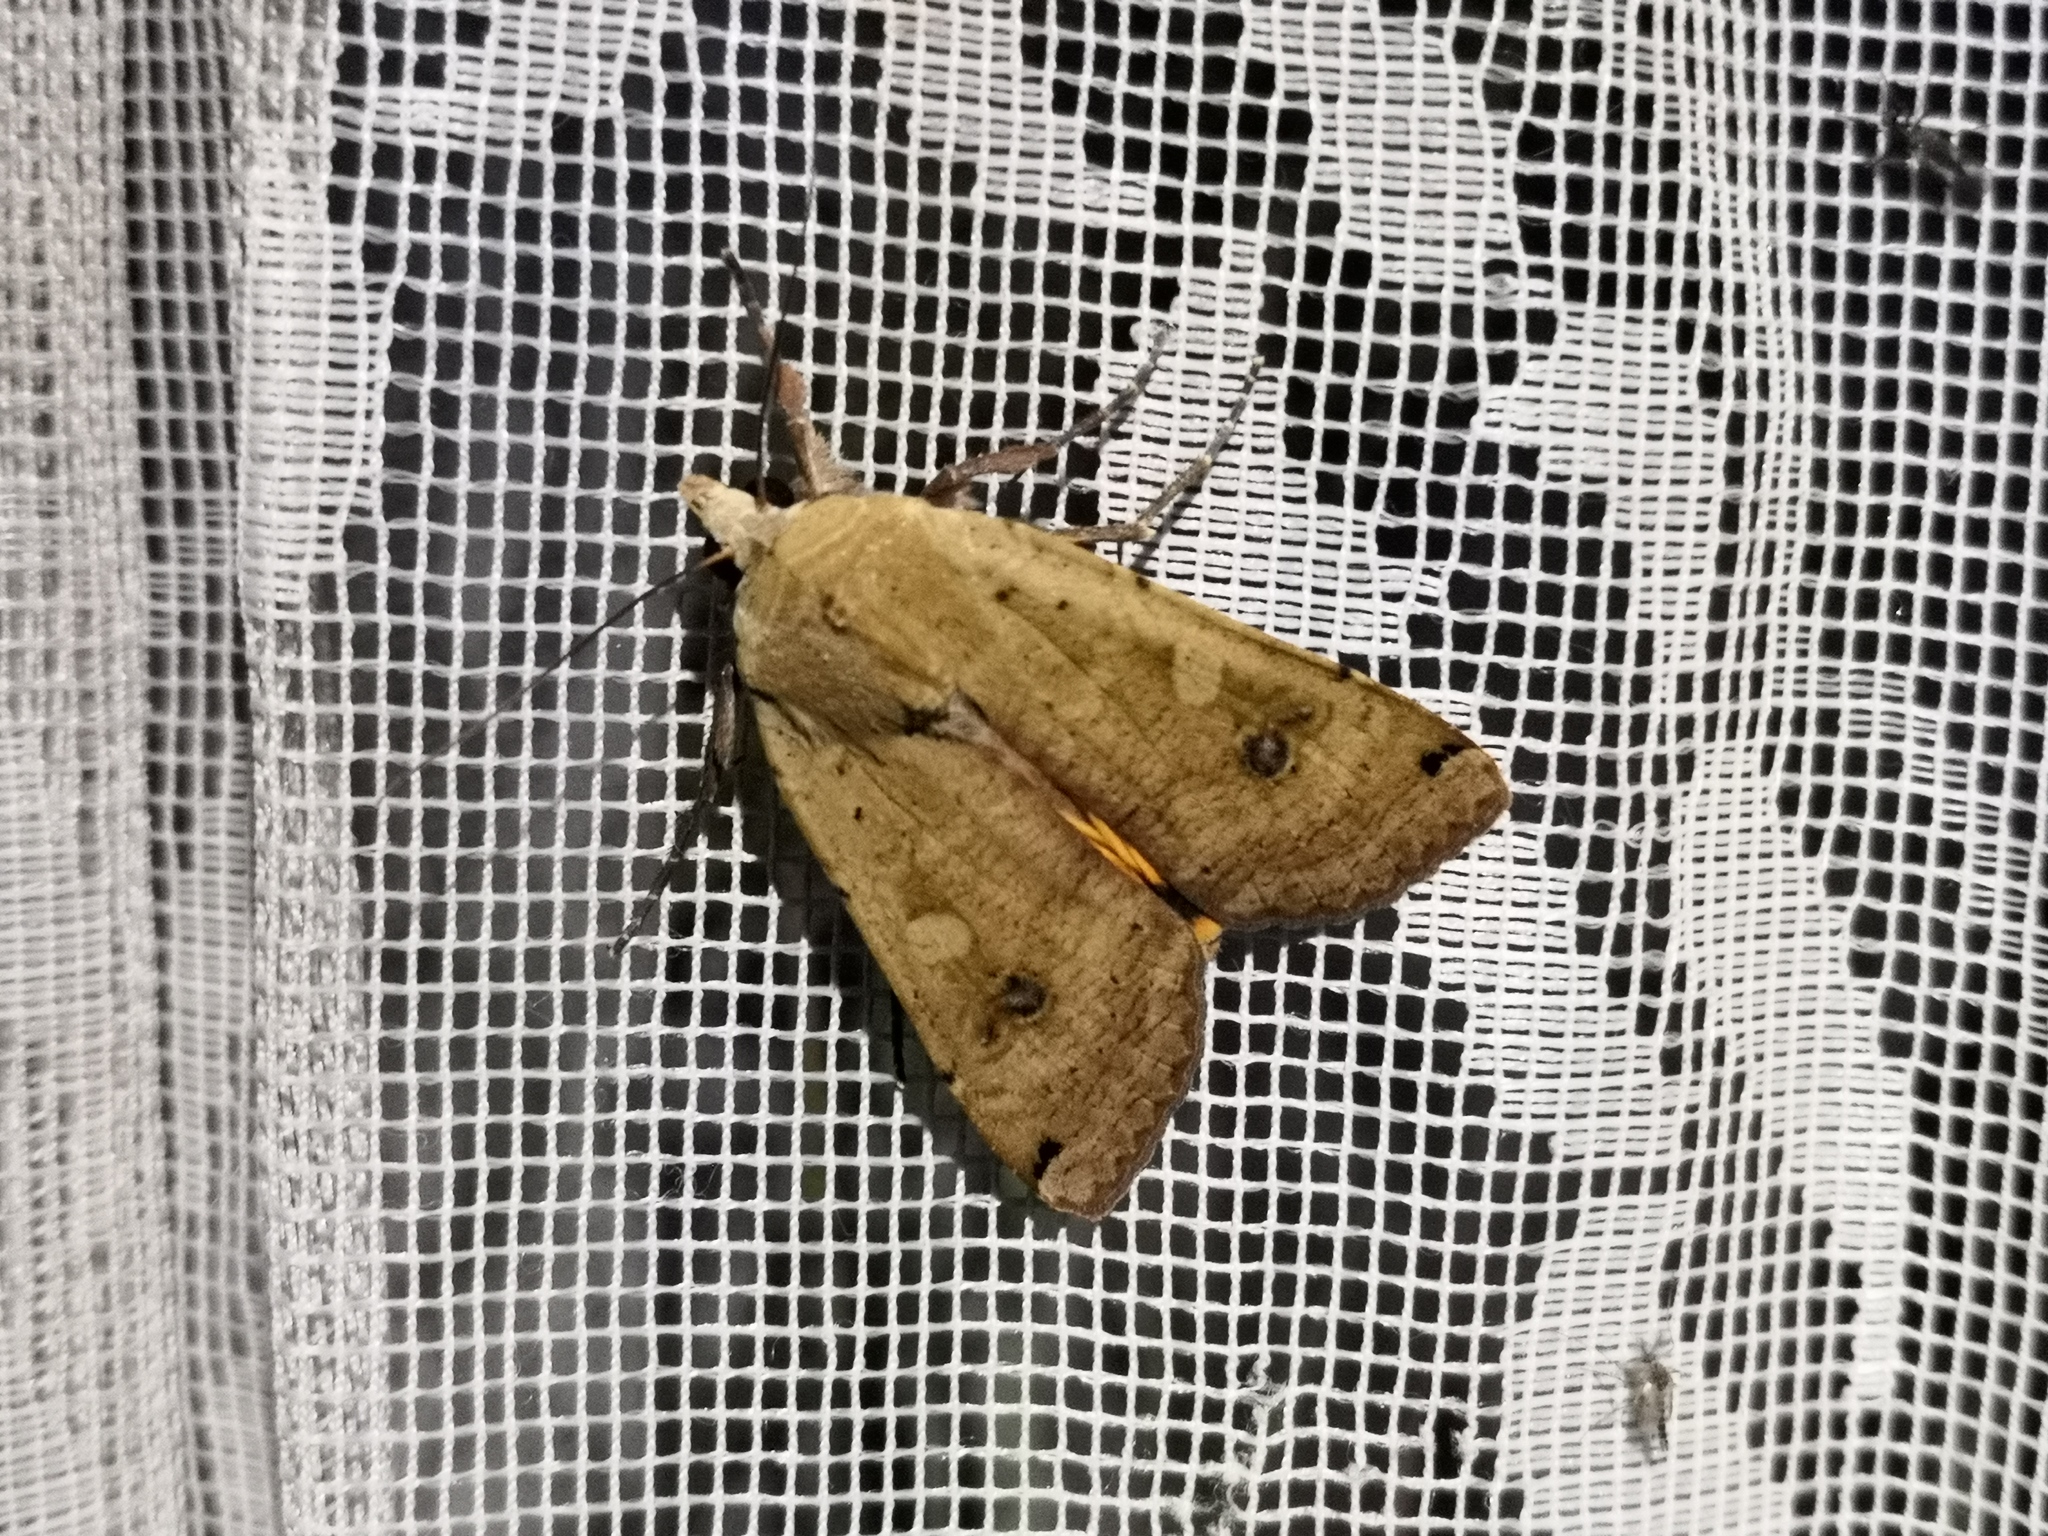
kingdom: Animalia
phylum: Arthropoda
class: Insecta
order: Lepidoptera
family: Noctuidae
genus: Noctua
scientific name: Noctua pronuba
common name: Large yellow underwing
